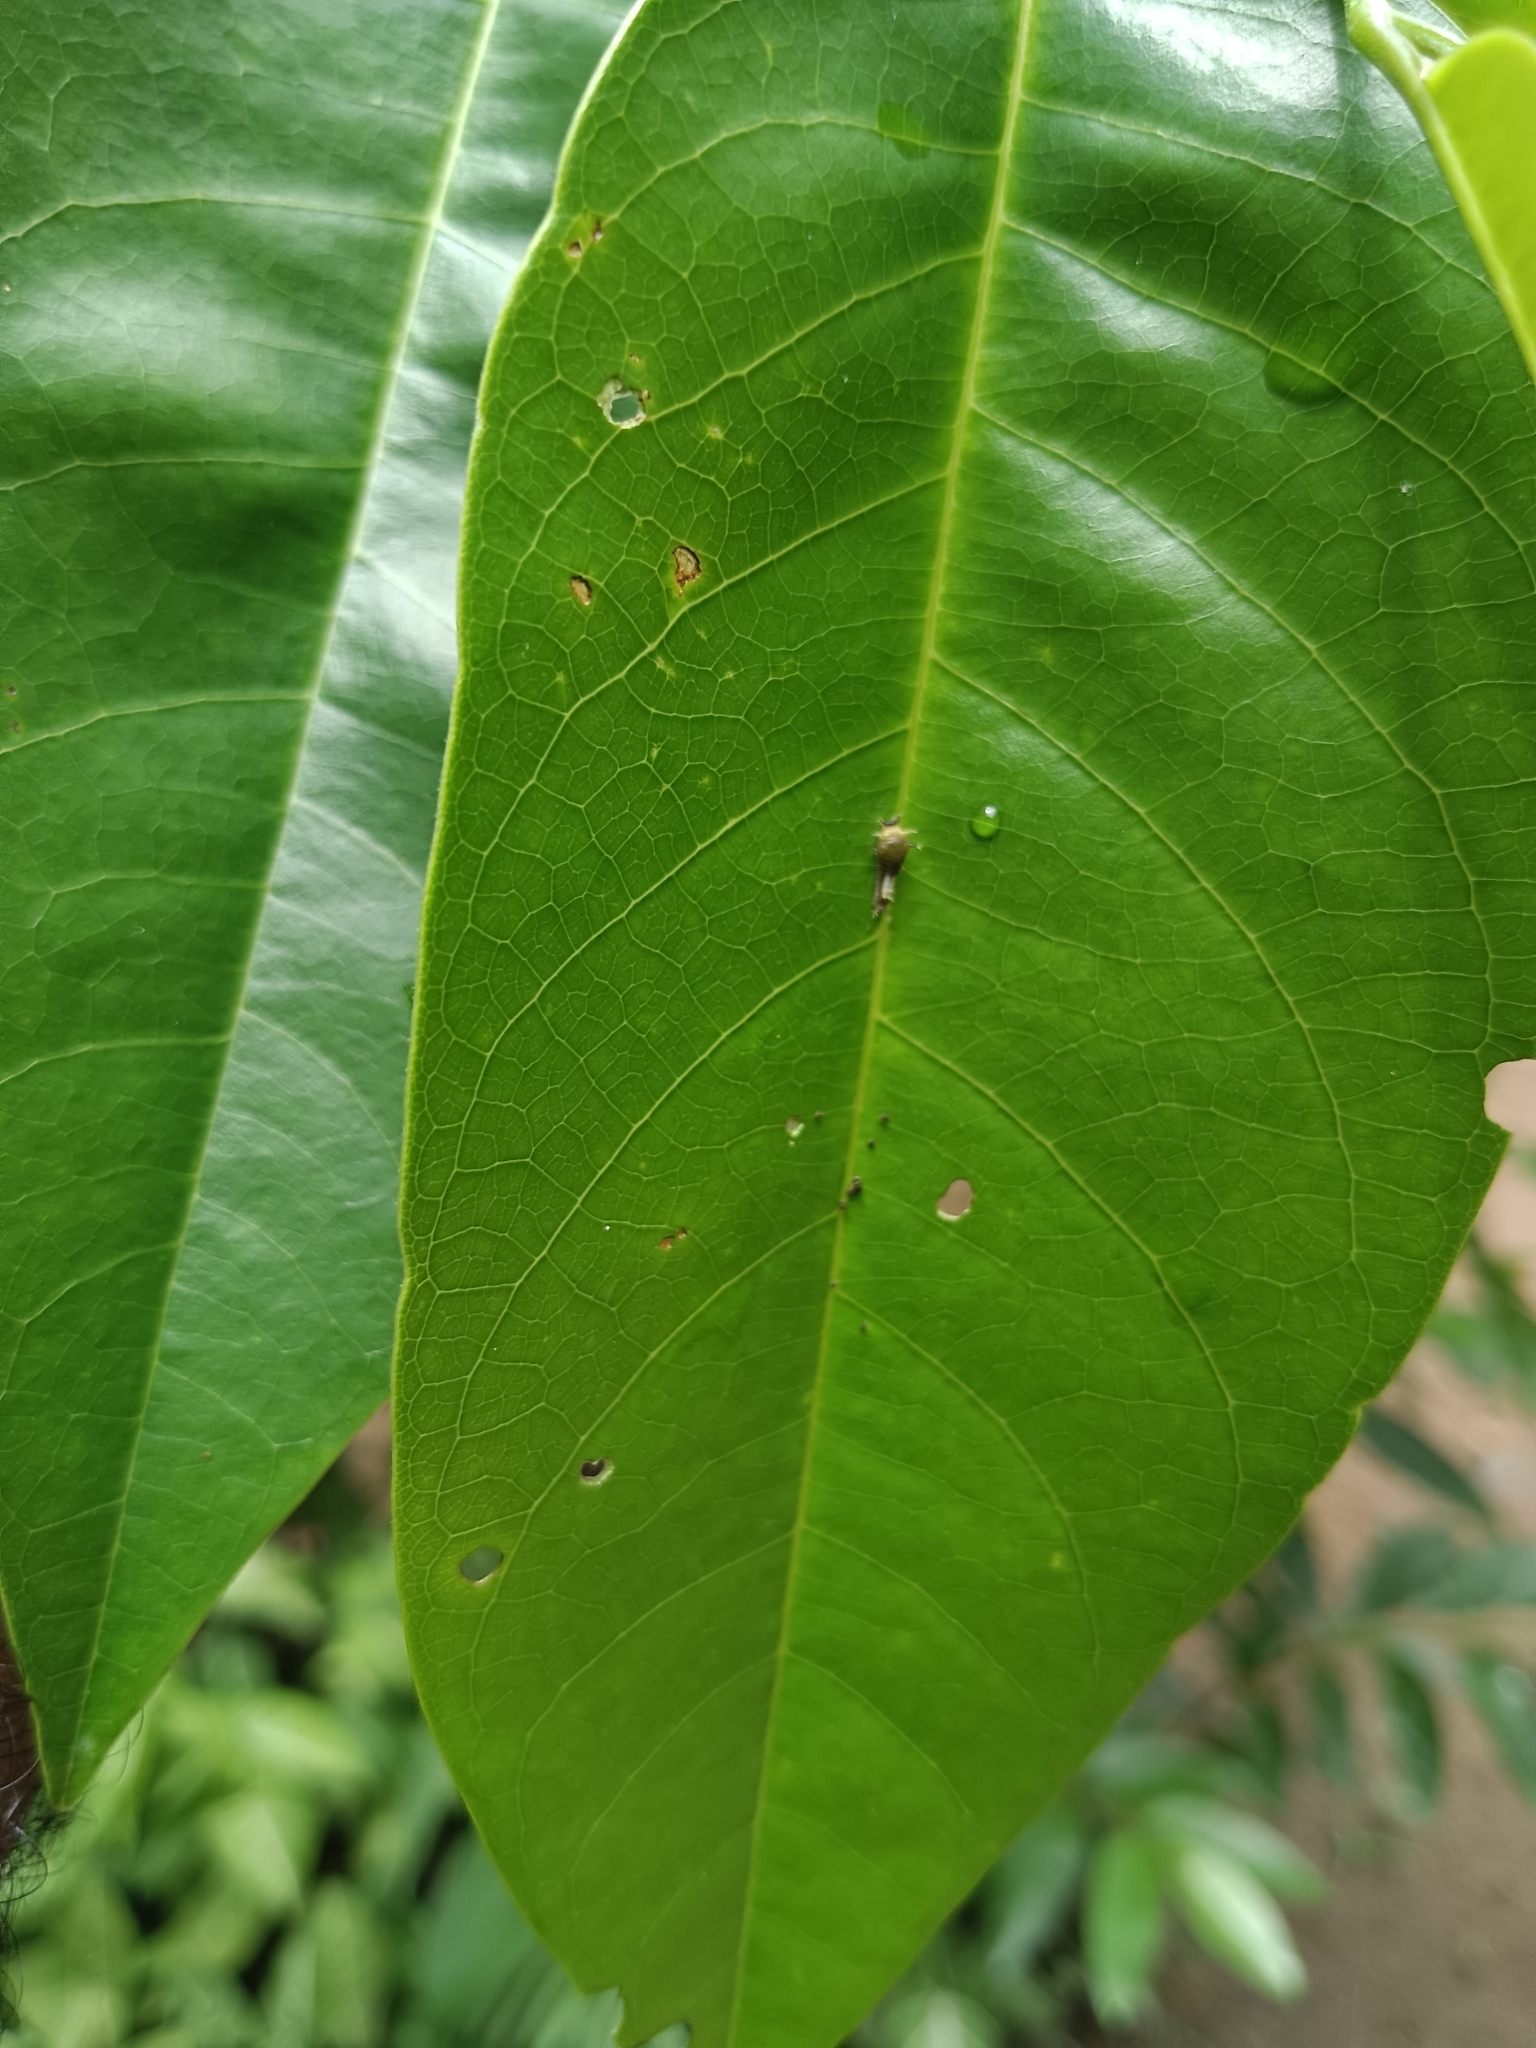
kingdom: Animalia
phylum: Arthropoda
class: Insecta
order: Lepidoptera
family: Papilionidae
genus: Graphium
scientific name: Graphium agamemnon
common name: Tailed jay
